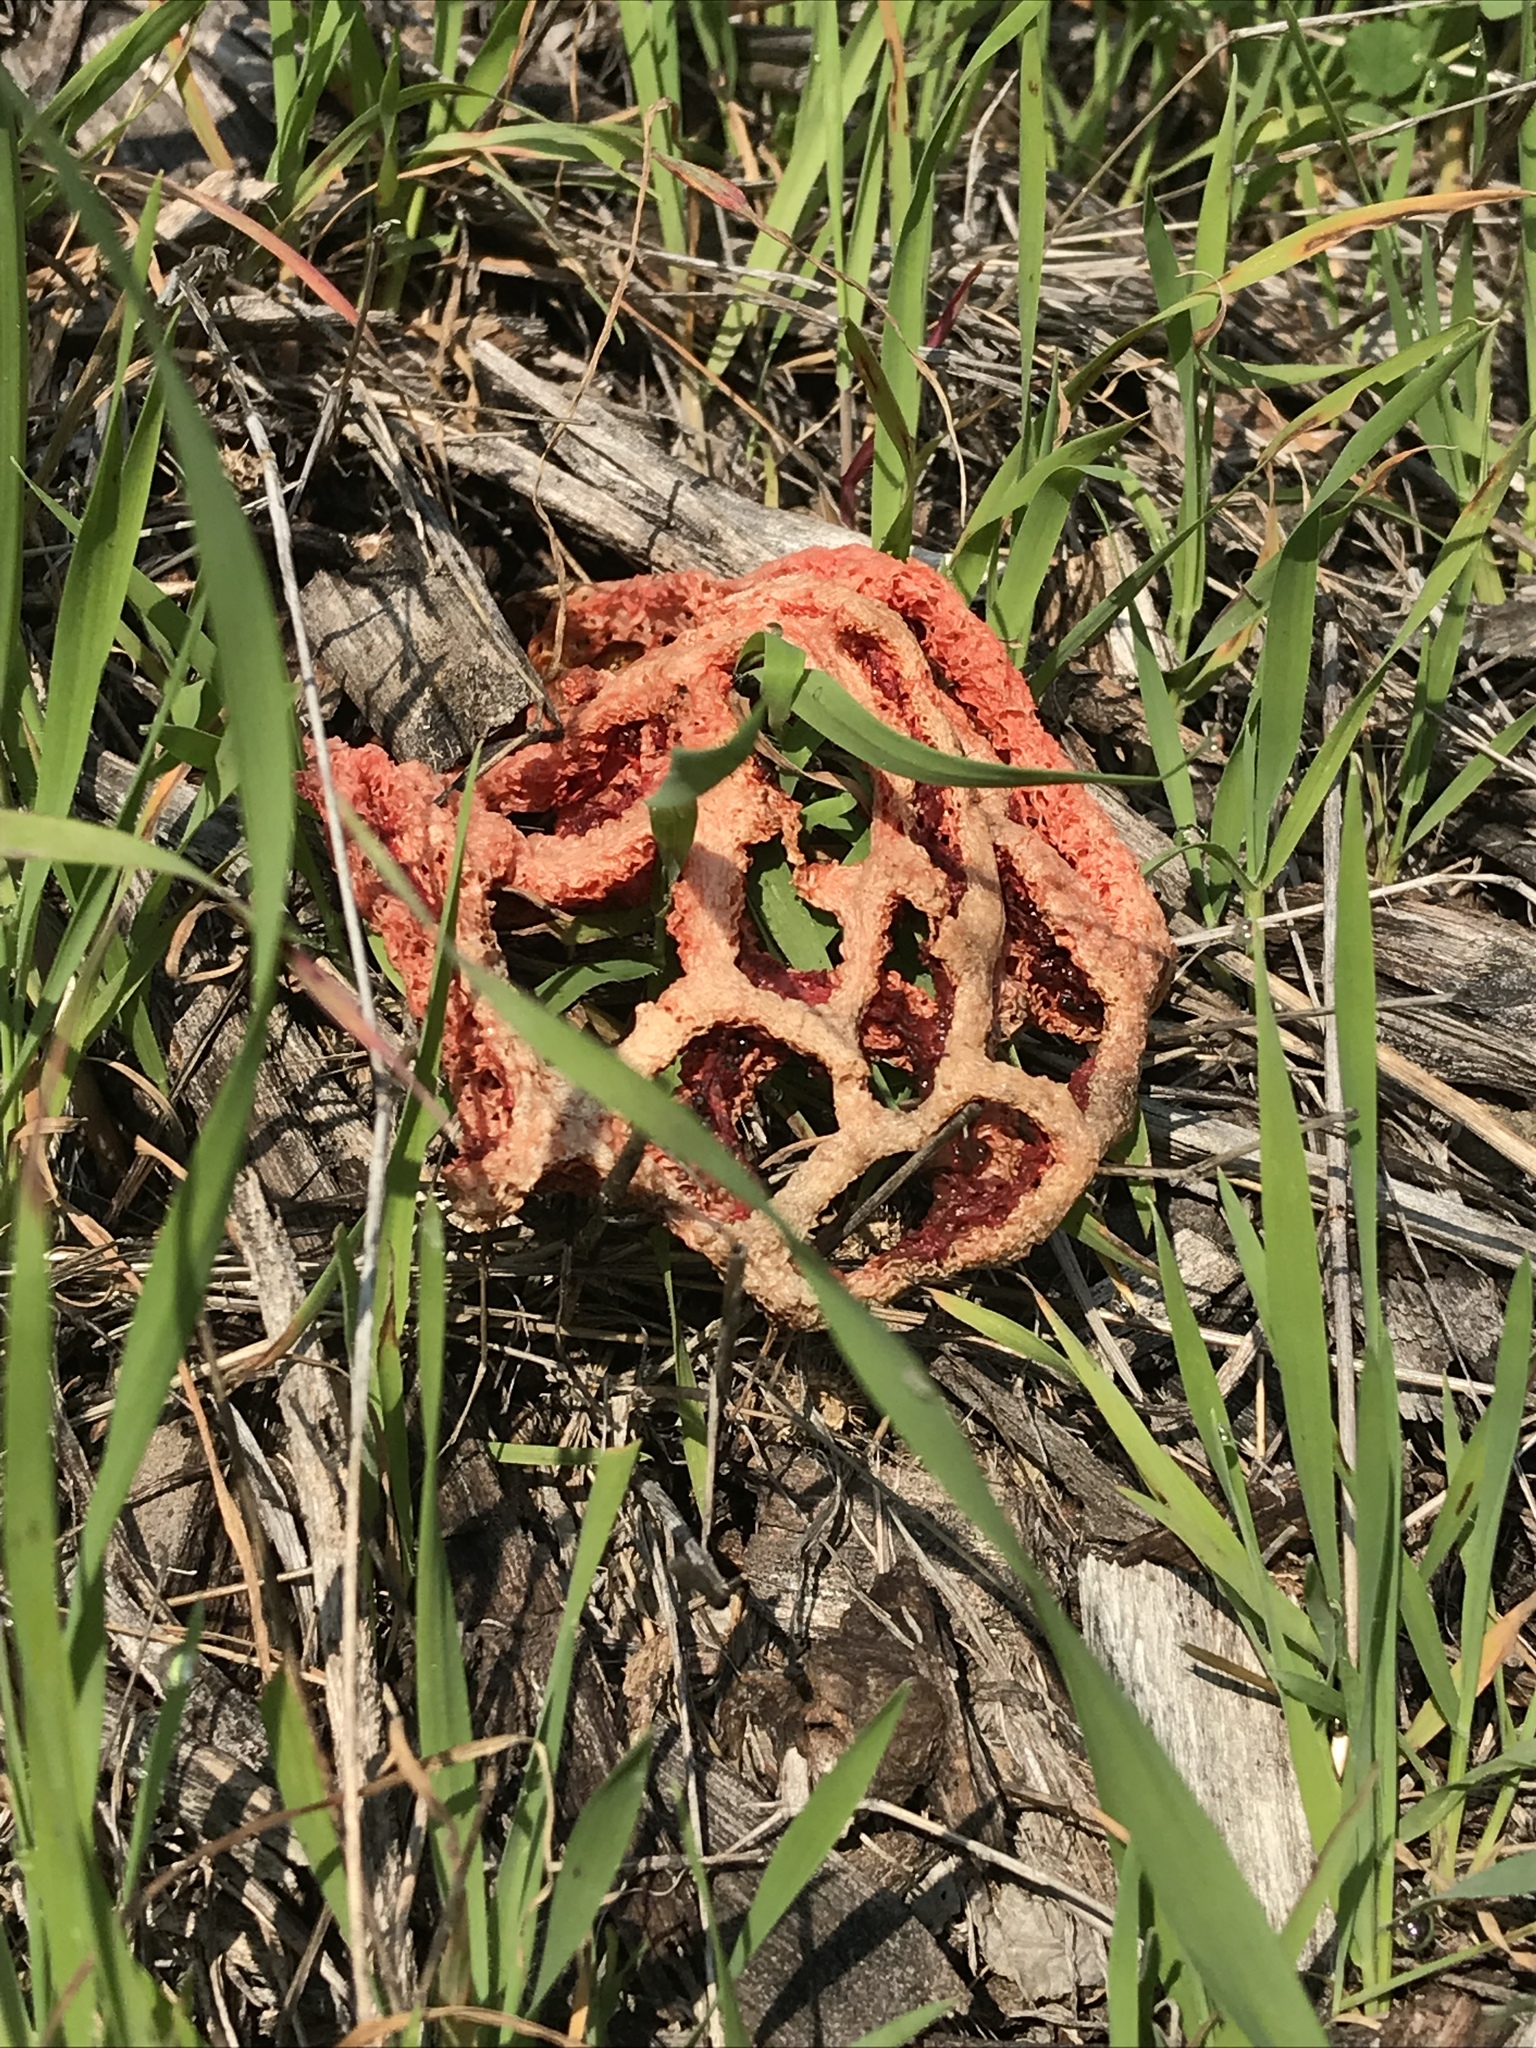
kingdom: Fungi
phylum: Basidiomycota
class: Agaricomycetes
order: Phallales
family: Phallaceae
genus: Clathrus
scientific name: Clathrus ruber
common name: Red cage
